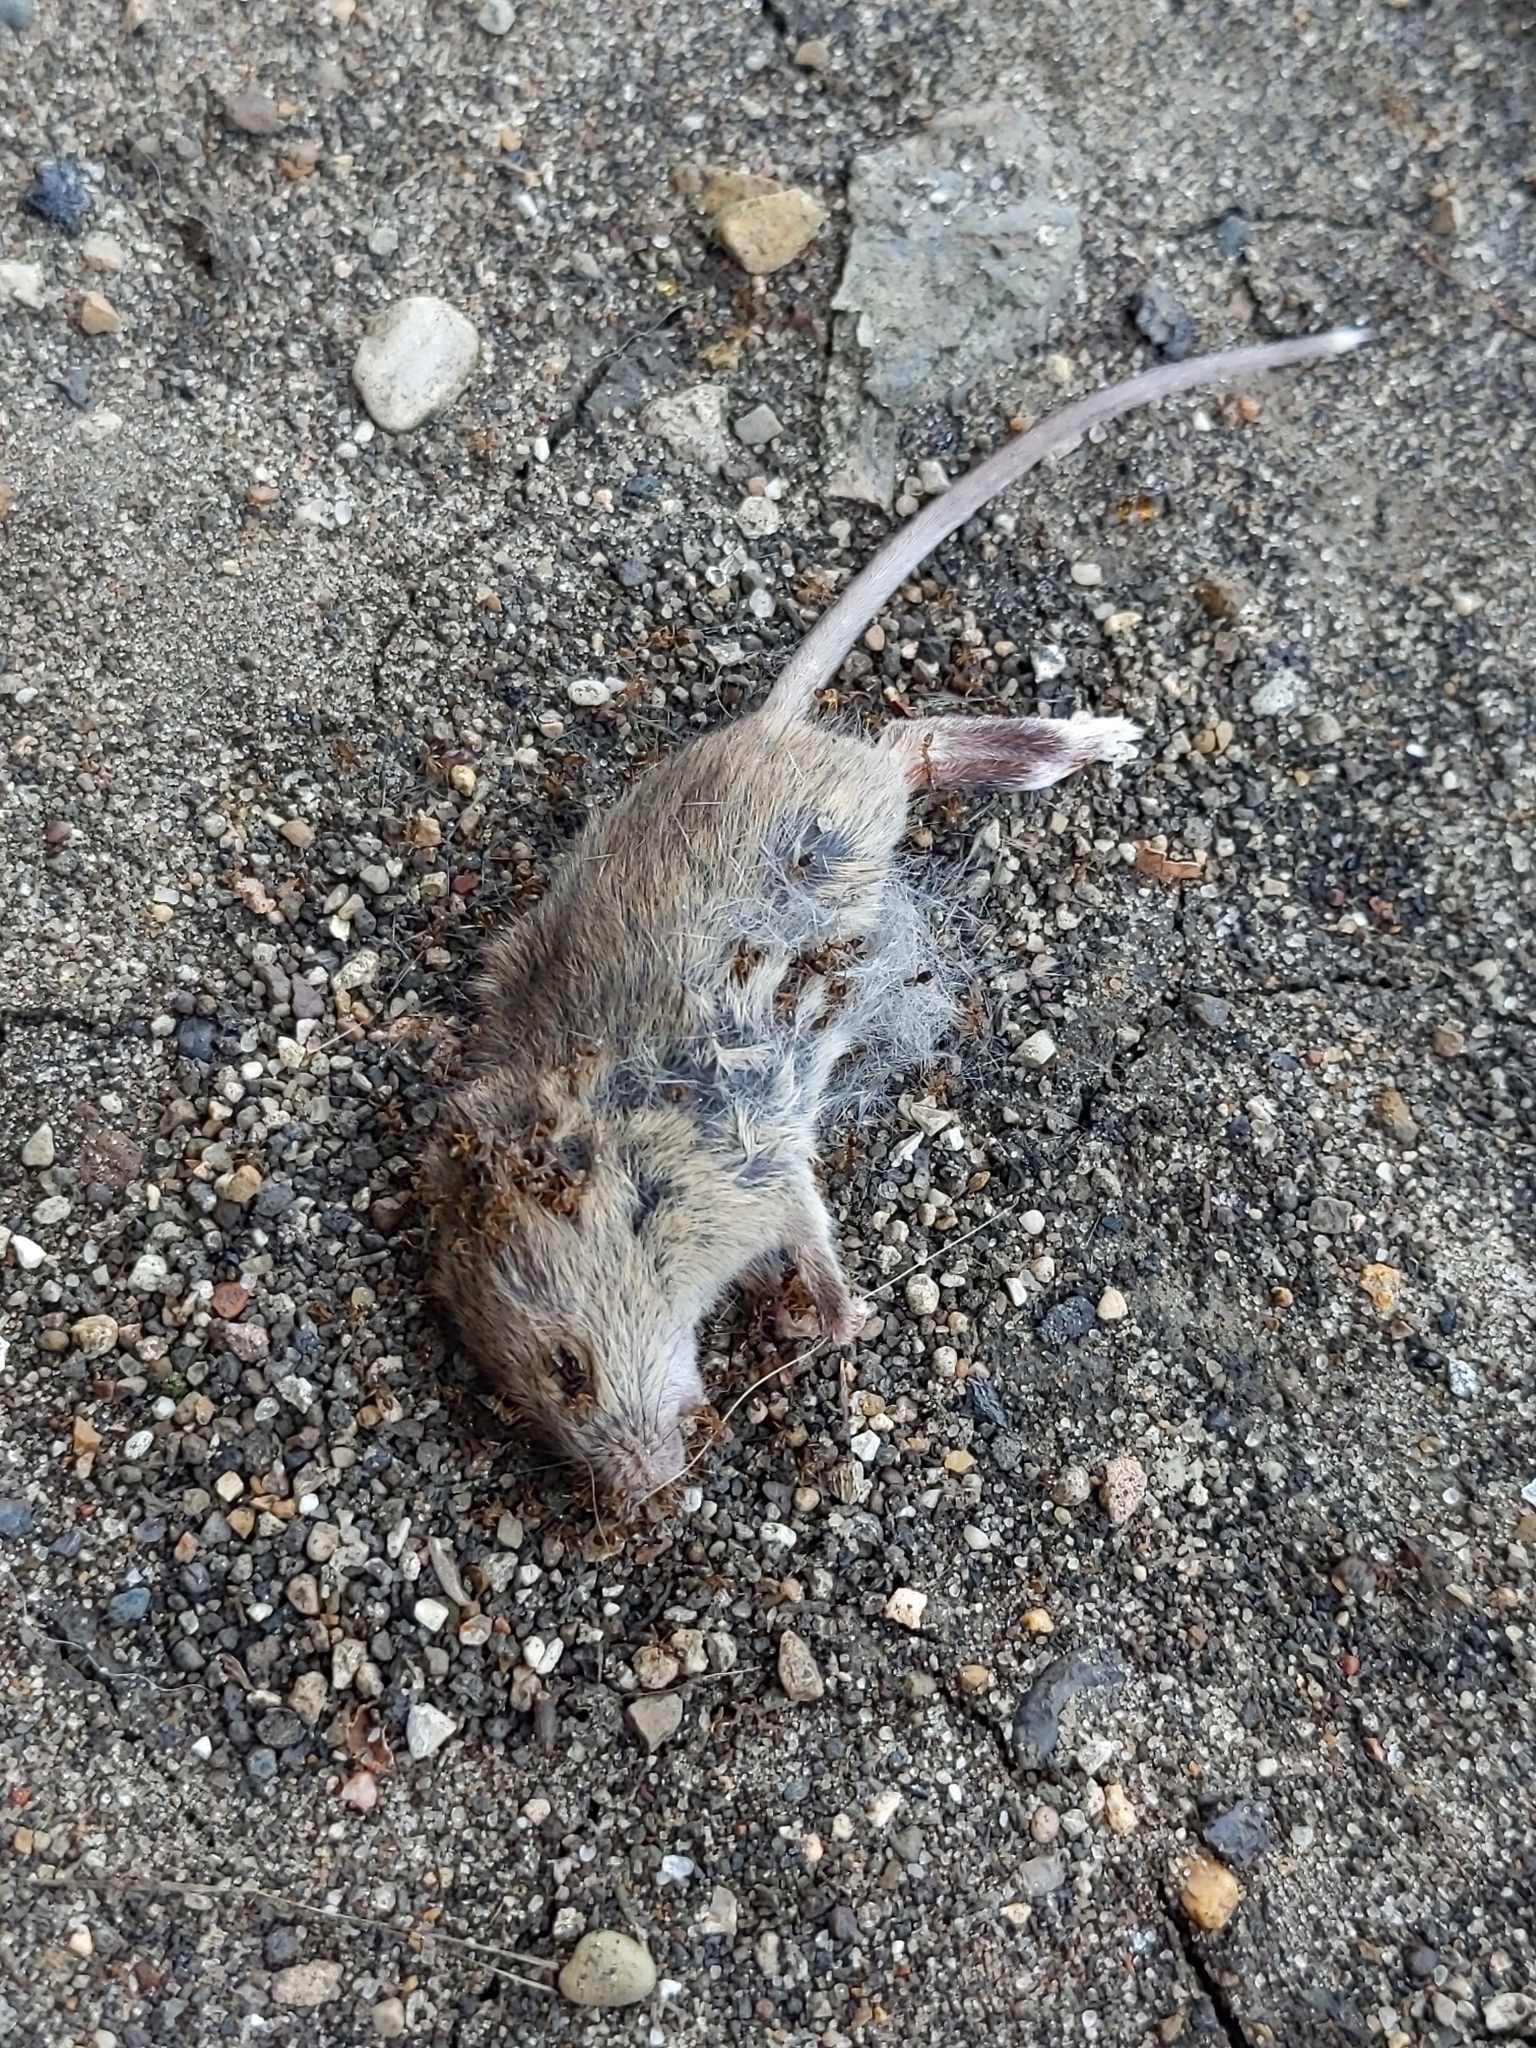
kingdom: Animalia
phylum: Chordata
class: Mammalia
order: Rodentia
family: Muridae
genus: Mus
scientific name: Mus musculus
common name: House mouse
